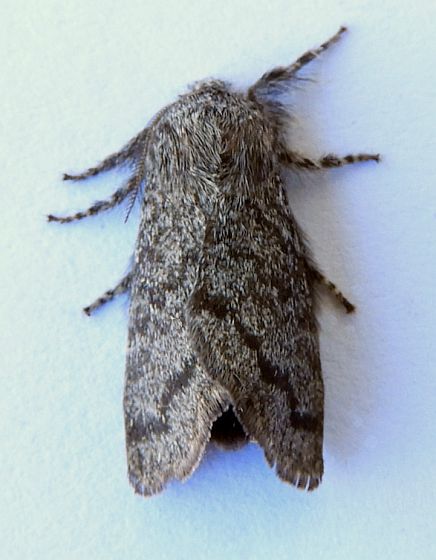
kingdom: Animalia
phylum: Arthropoda
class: Insecta
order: Lepidoptera
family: Lasiocampidae
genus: Hypopacha
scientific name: Hypopacha grisea
